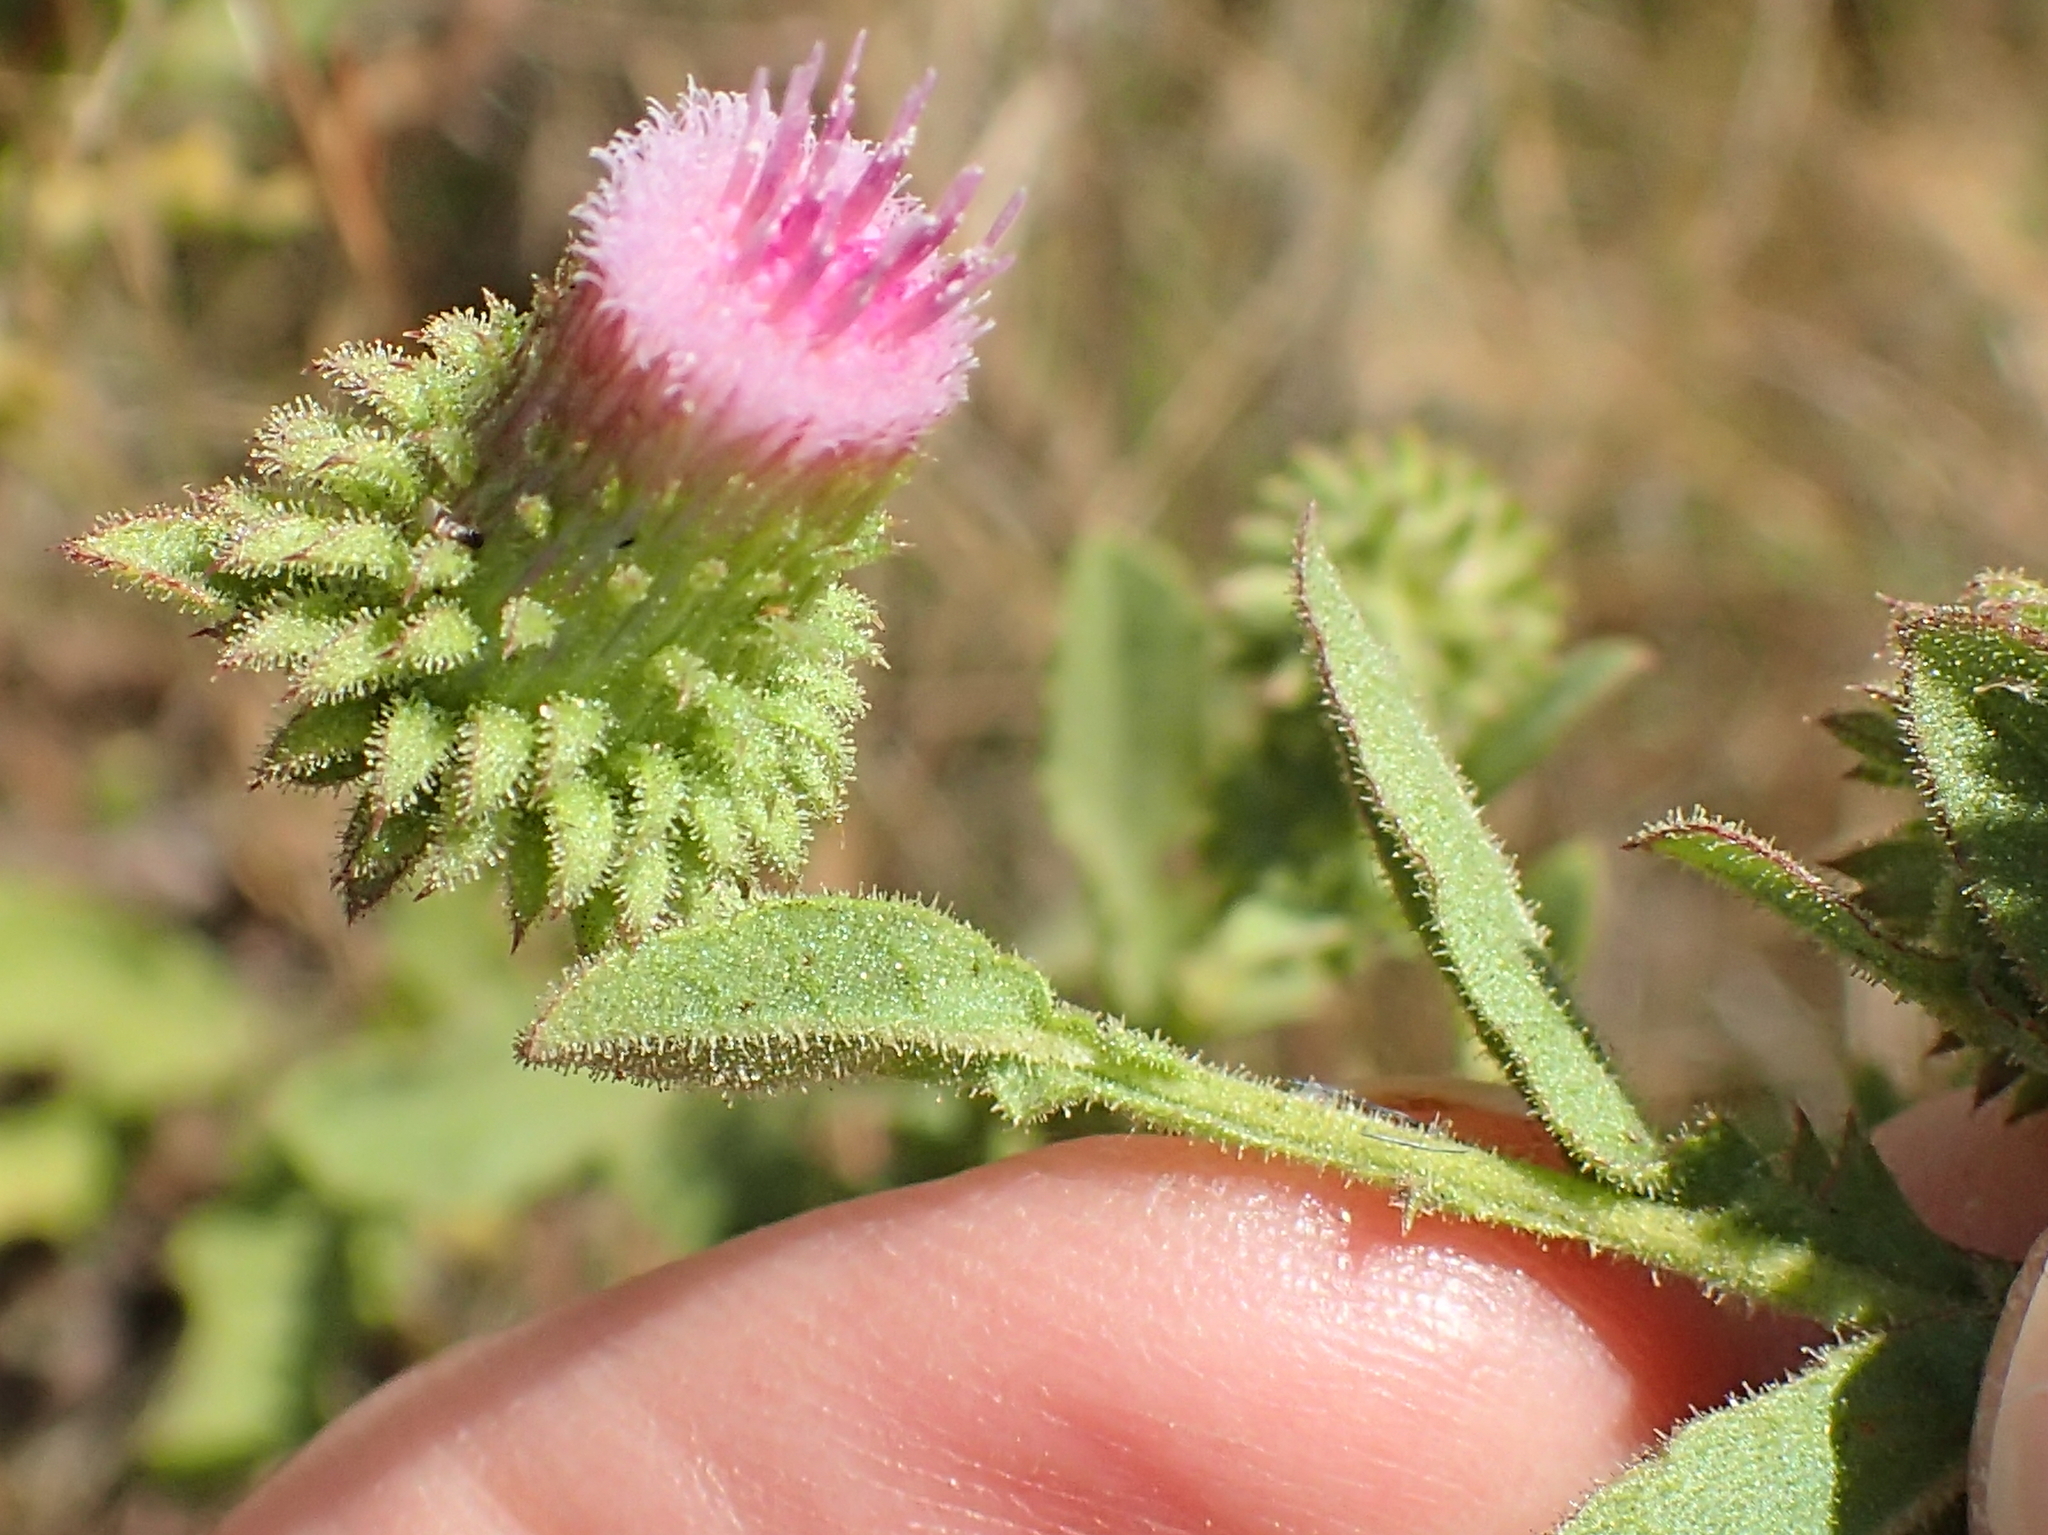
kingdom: Plantae
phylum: Tracheophyta
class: Magnoliopsida
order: Asterales
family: Asteraceae
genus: Laggera
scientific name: Laggera crispata
